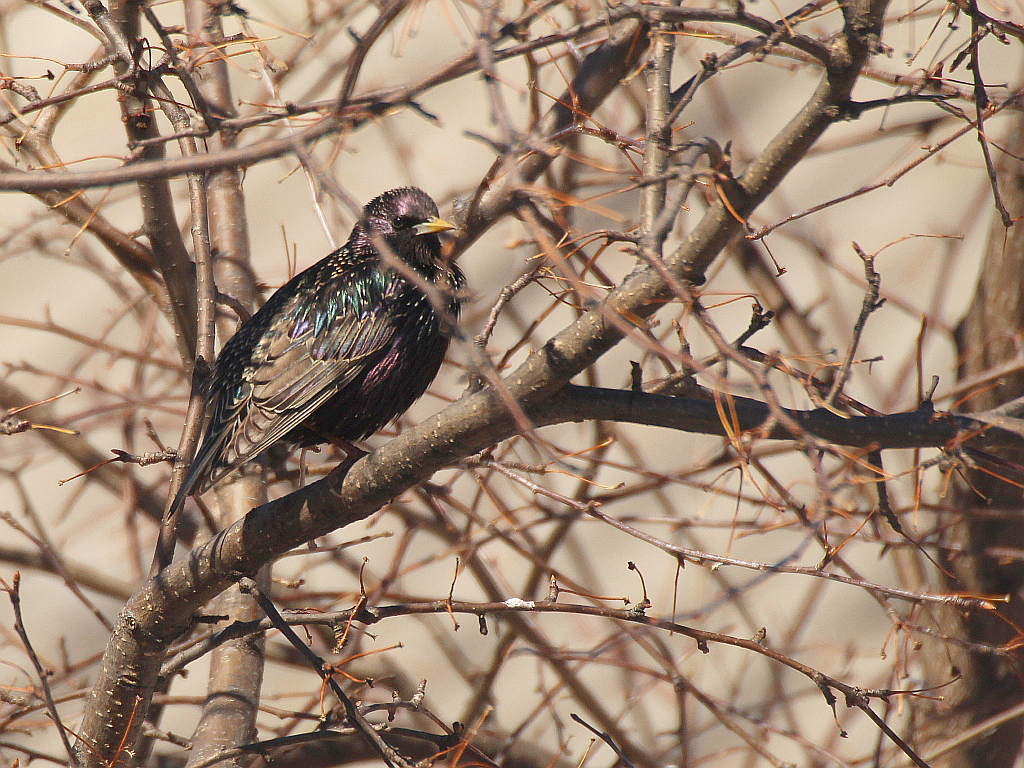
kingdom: Animalia
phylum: Chordata
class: Aves
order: Passeriformes
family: Sturnidae
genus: Sturnus
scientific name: Sturnus vulgaris
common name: Common starling
